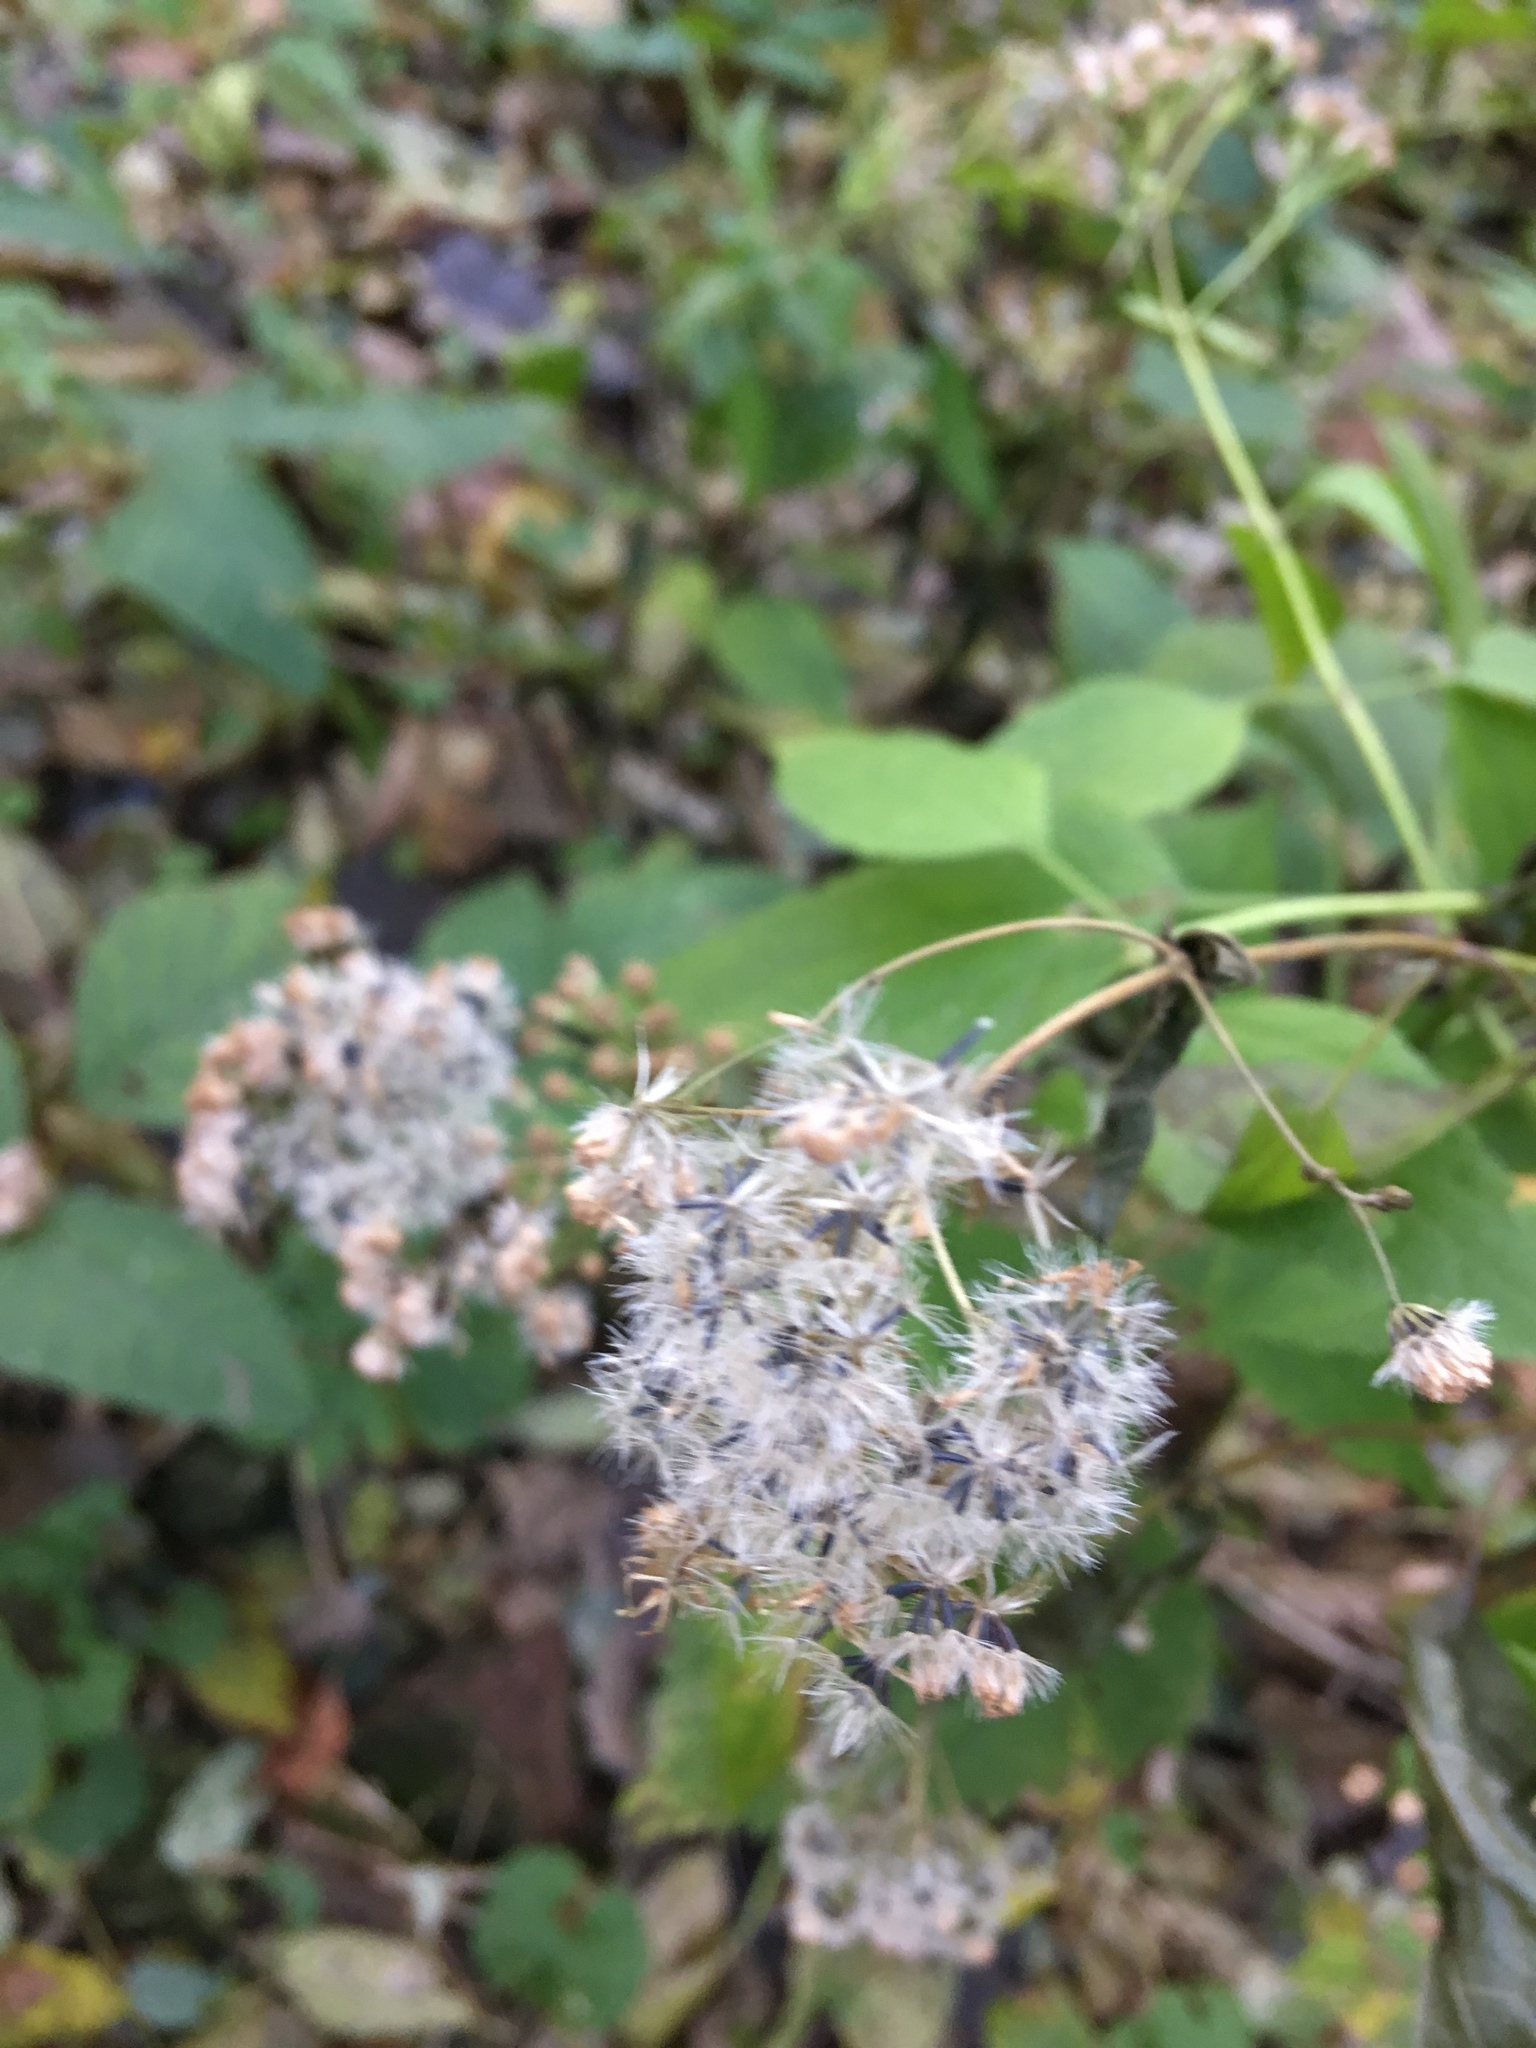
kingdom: Plantae
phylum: Tracheophyta
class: Magnoliopsida
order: Asterales
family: Asteraceae
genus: Ageratina
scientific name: Ageratina altissima
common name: White snakeroot
